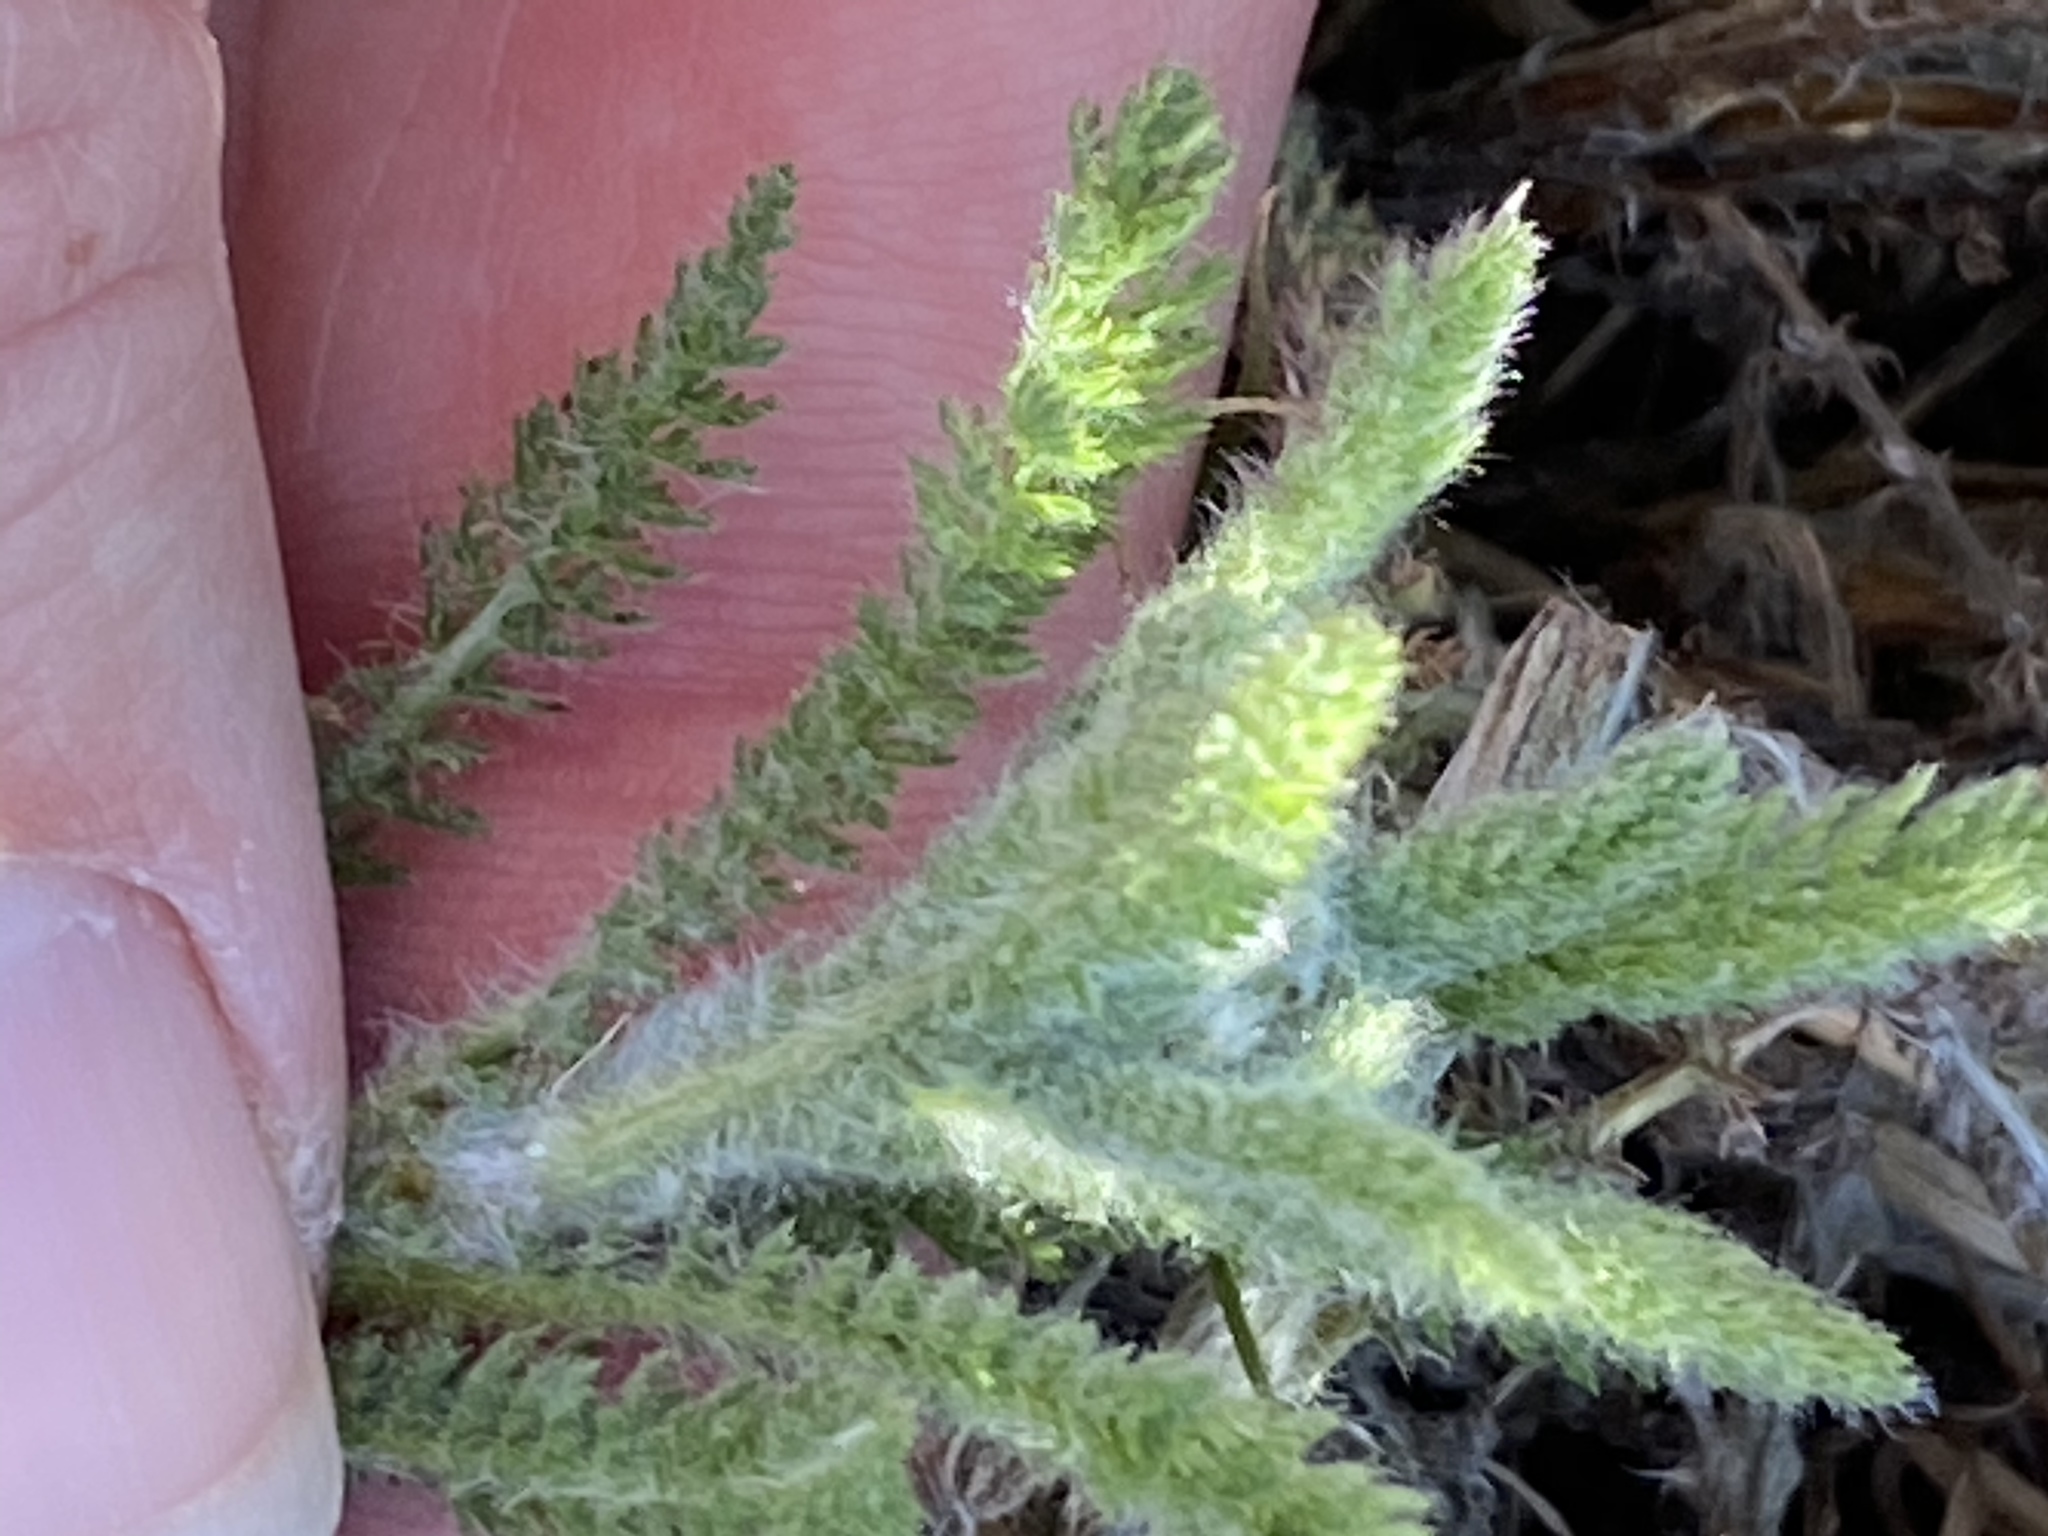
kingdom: Plantae
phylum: Tracheophyta
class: Magnoliopsida
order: Asterales
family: Asteraceae
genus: Achillea
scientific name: Achillea millefolium
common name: Yarrow
